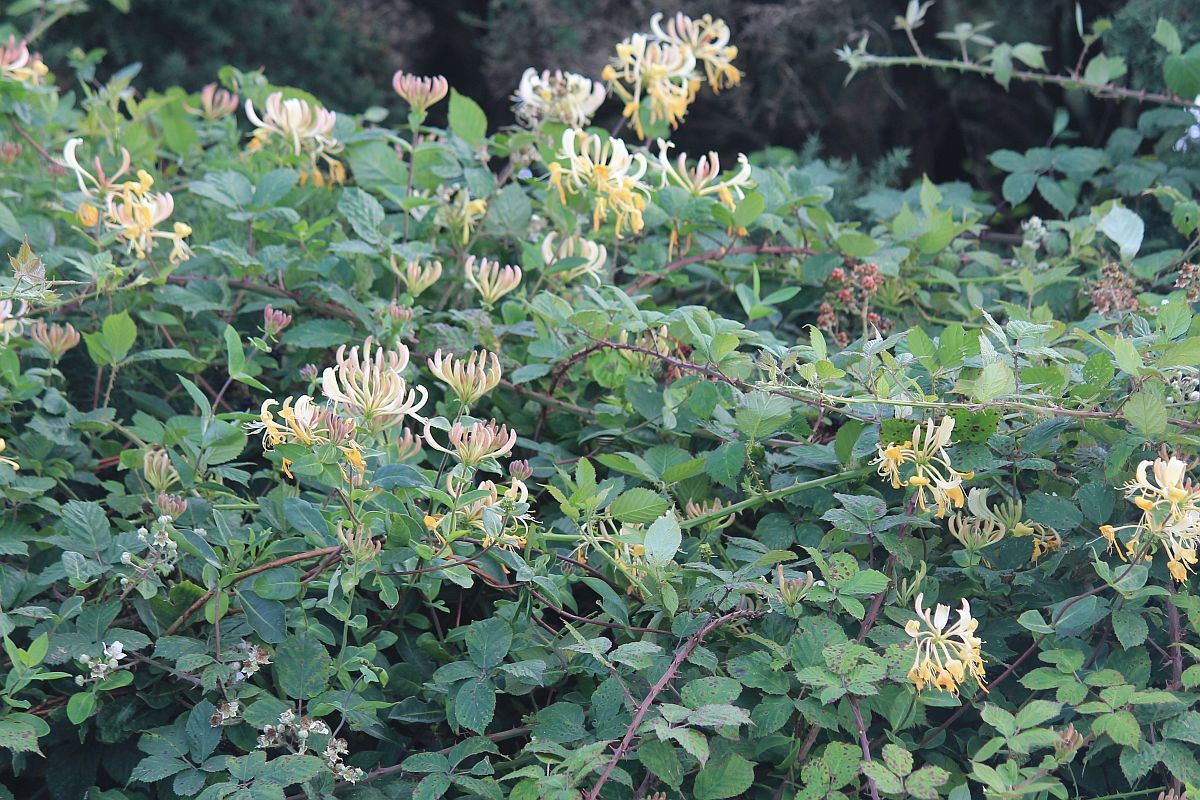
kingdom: Plantae
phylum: Tracheophyta
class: Magnoliopsida
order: Dipsacales
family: Caprifoliaceae
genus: Lonicera
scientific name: Lonicera periclymenum
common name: European honeysuckle
